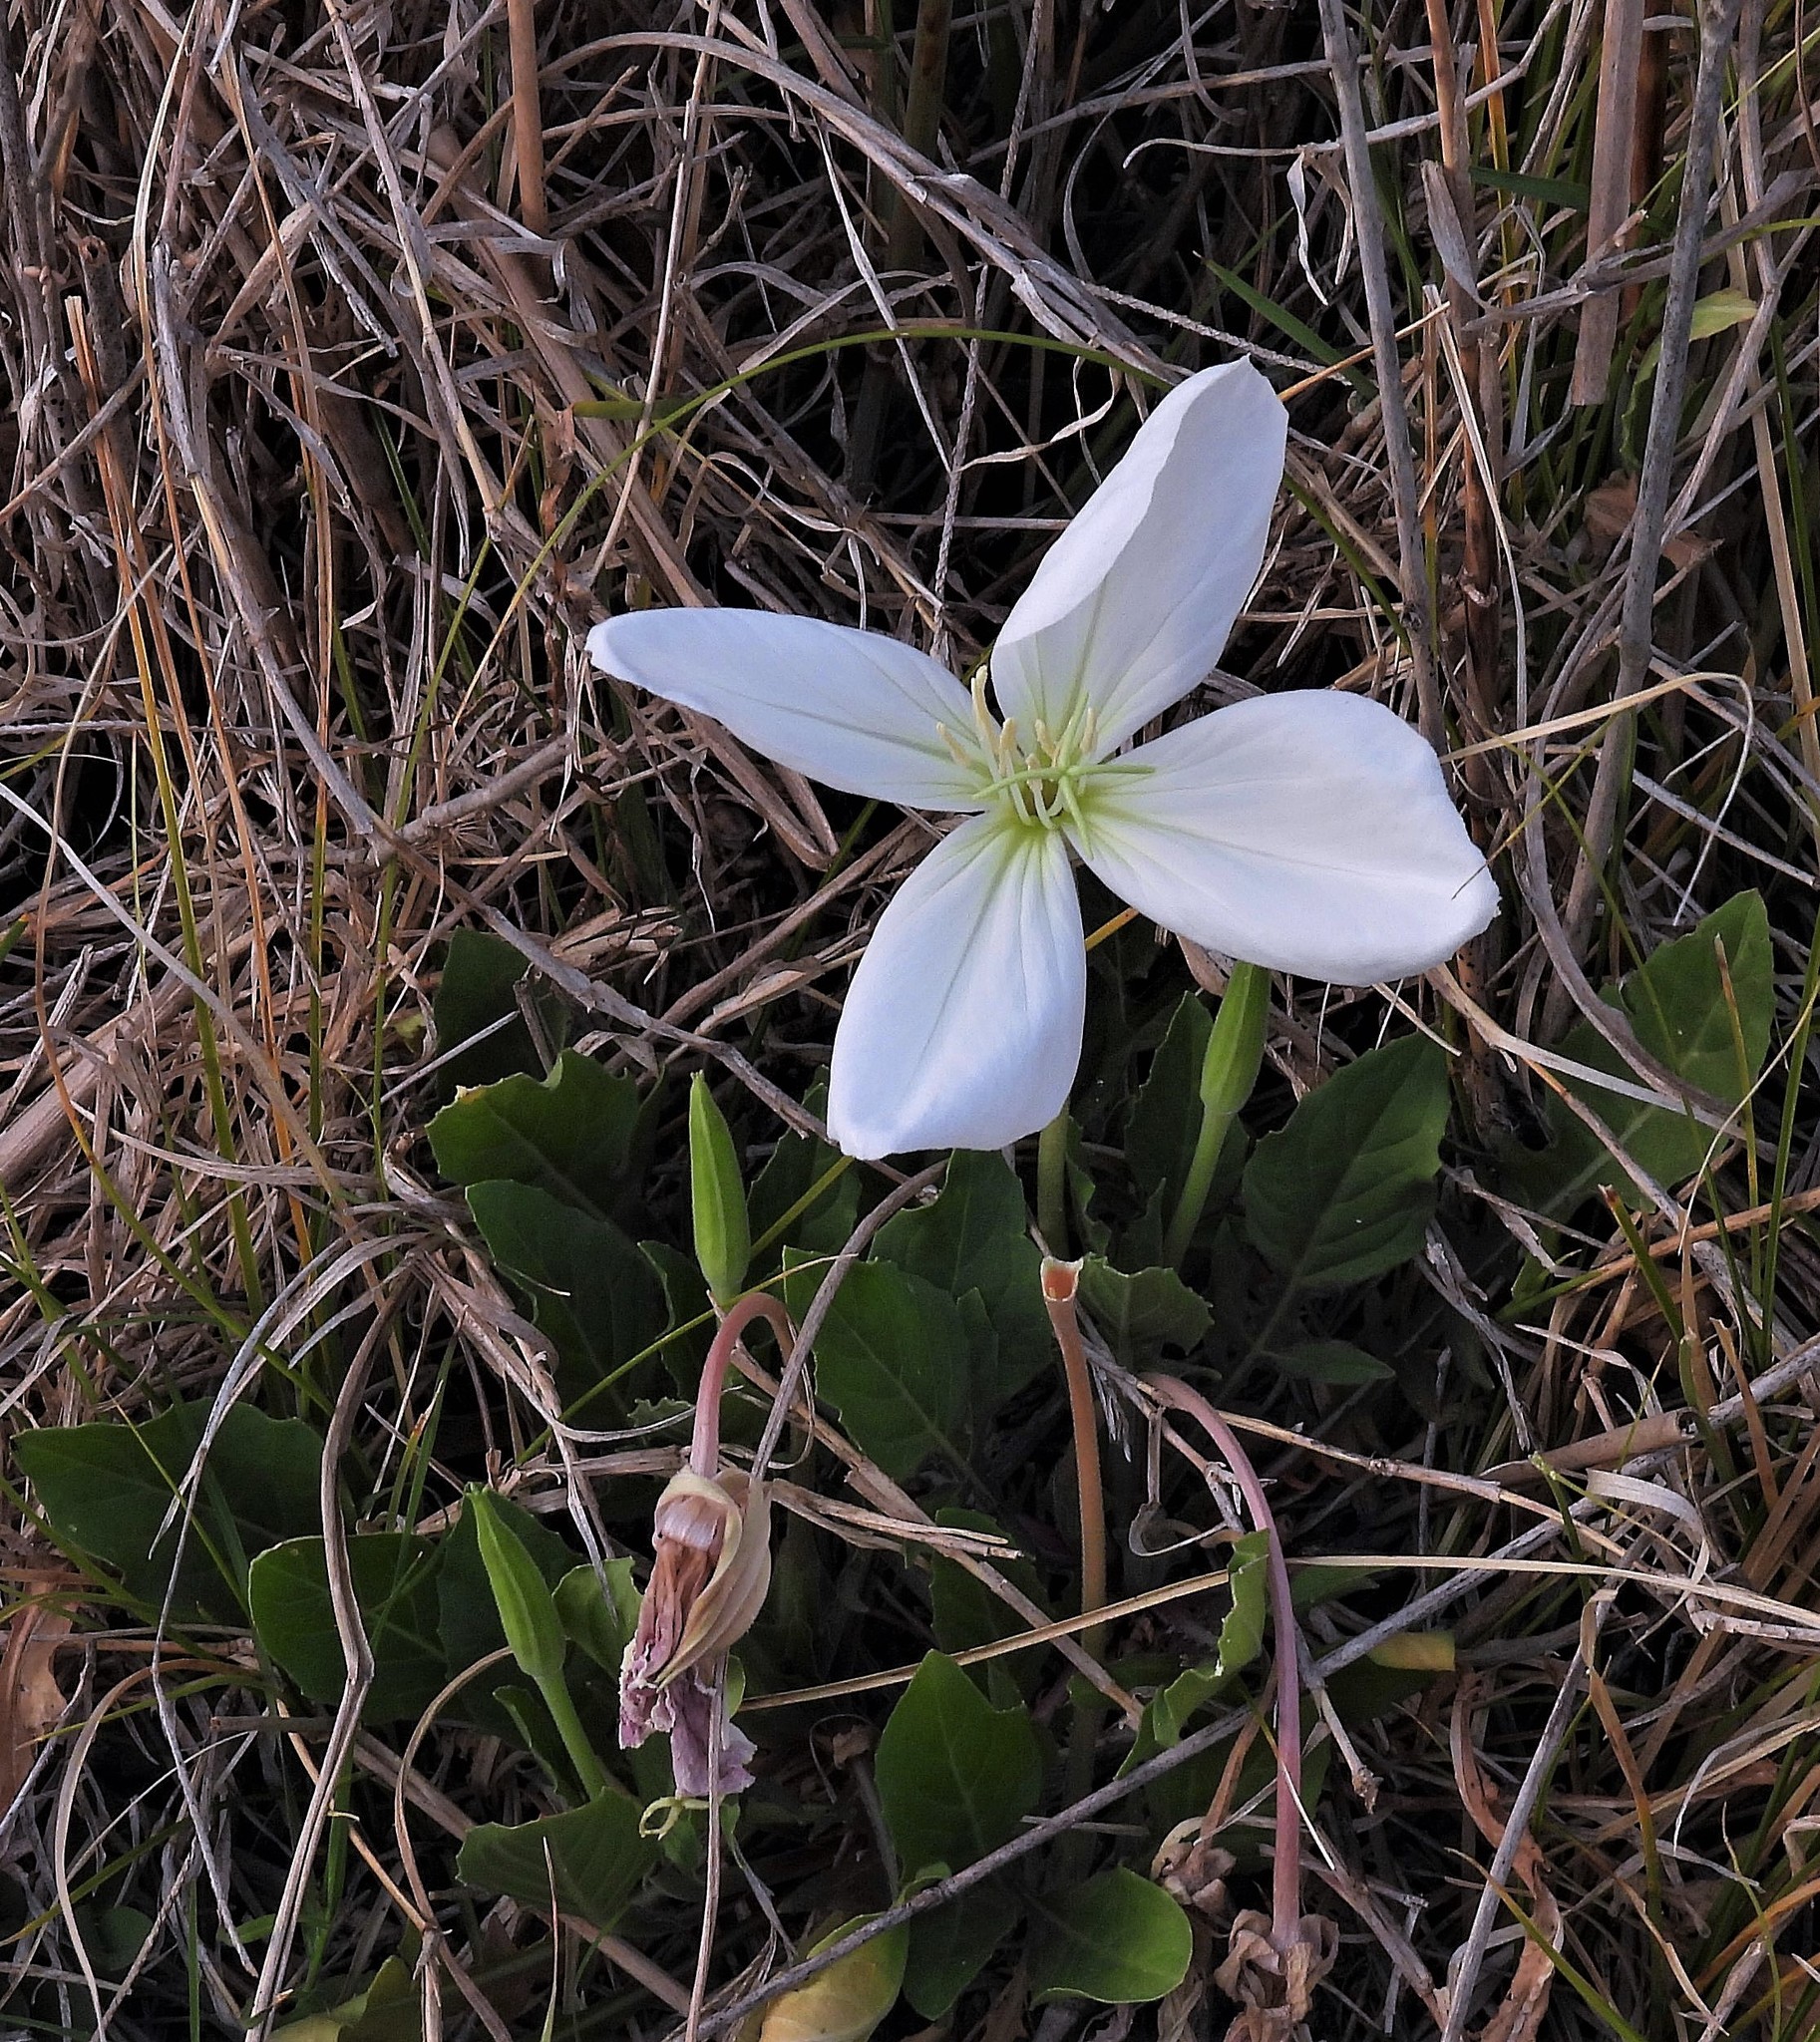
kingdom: Plantae
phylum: Tracheophyta
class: Magnoliopsida
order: Myrtales
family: Onagraceae
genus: Oenothera
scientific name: Oenothera centaurifolia
